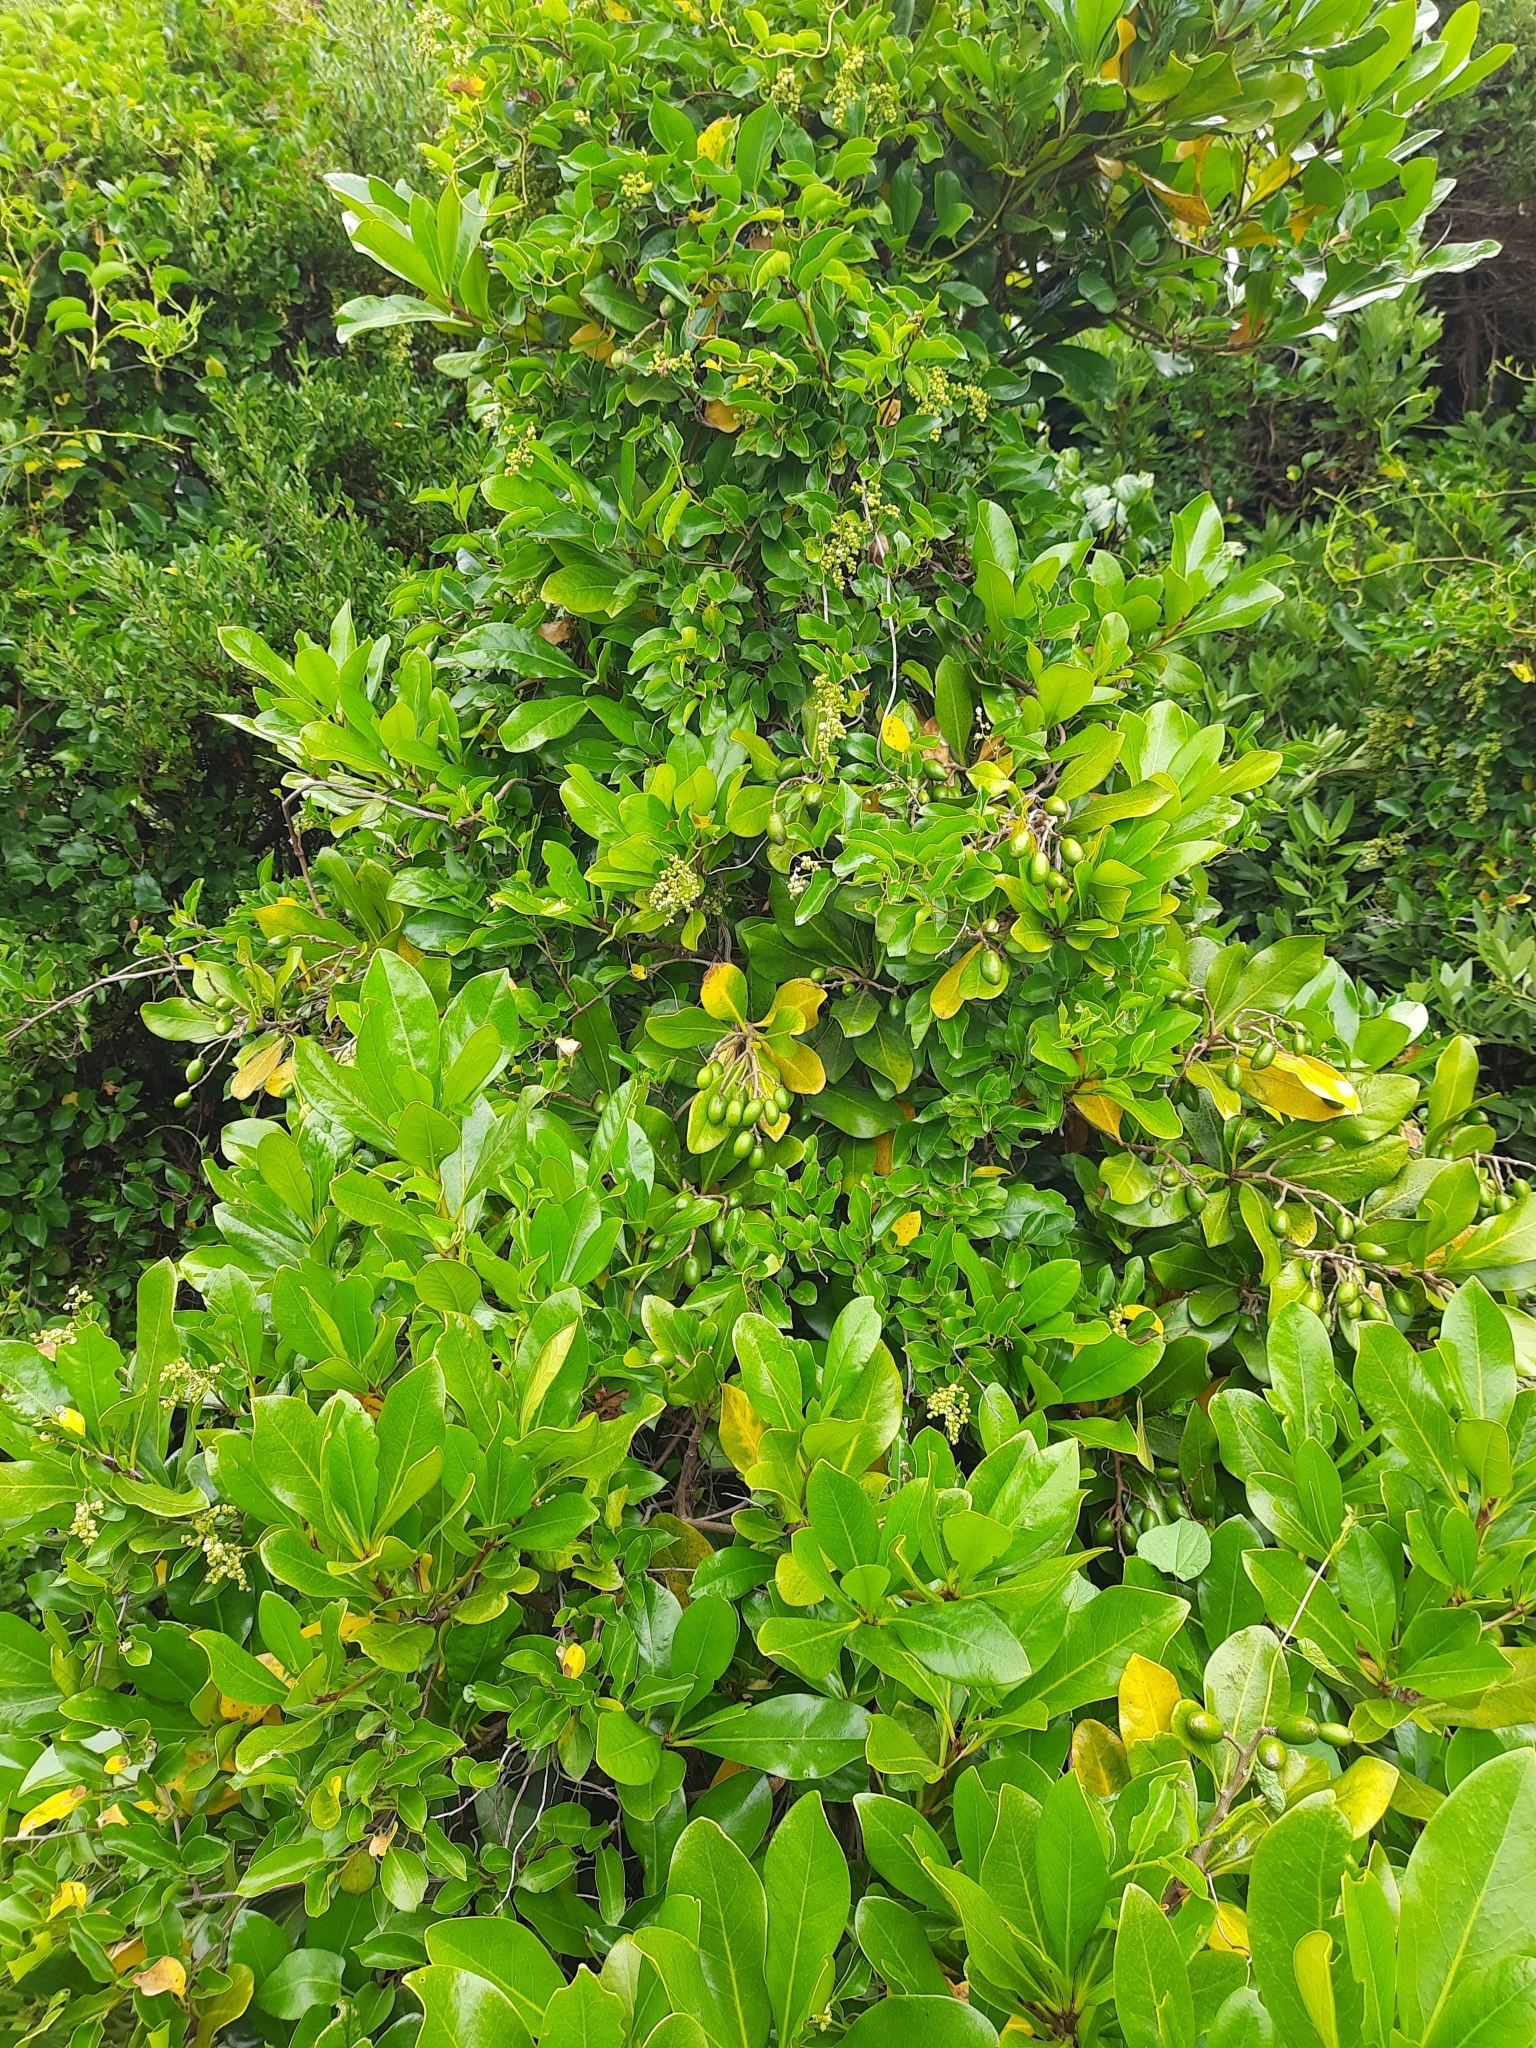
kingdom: Plantae
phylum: Tracheophyta
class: Magnoliopsida
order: Gentianales
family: Rubiaceae
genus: Coprosma
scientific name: Coprosma chathamica
